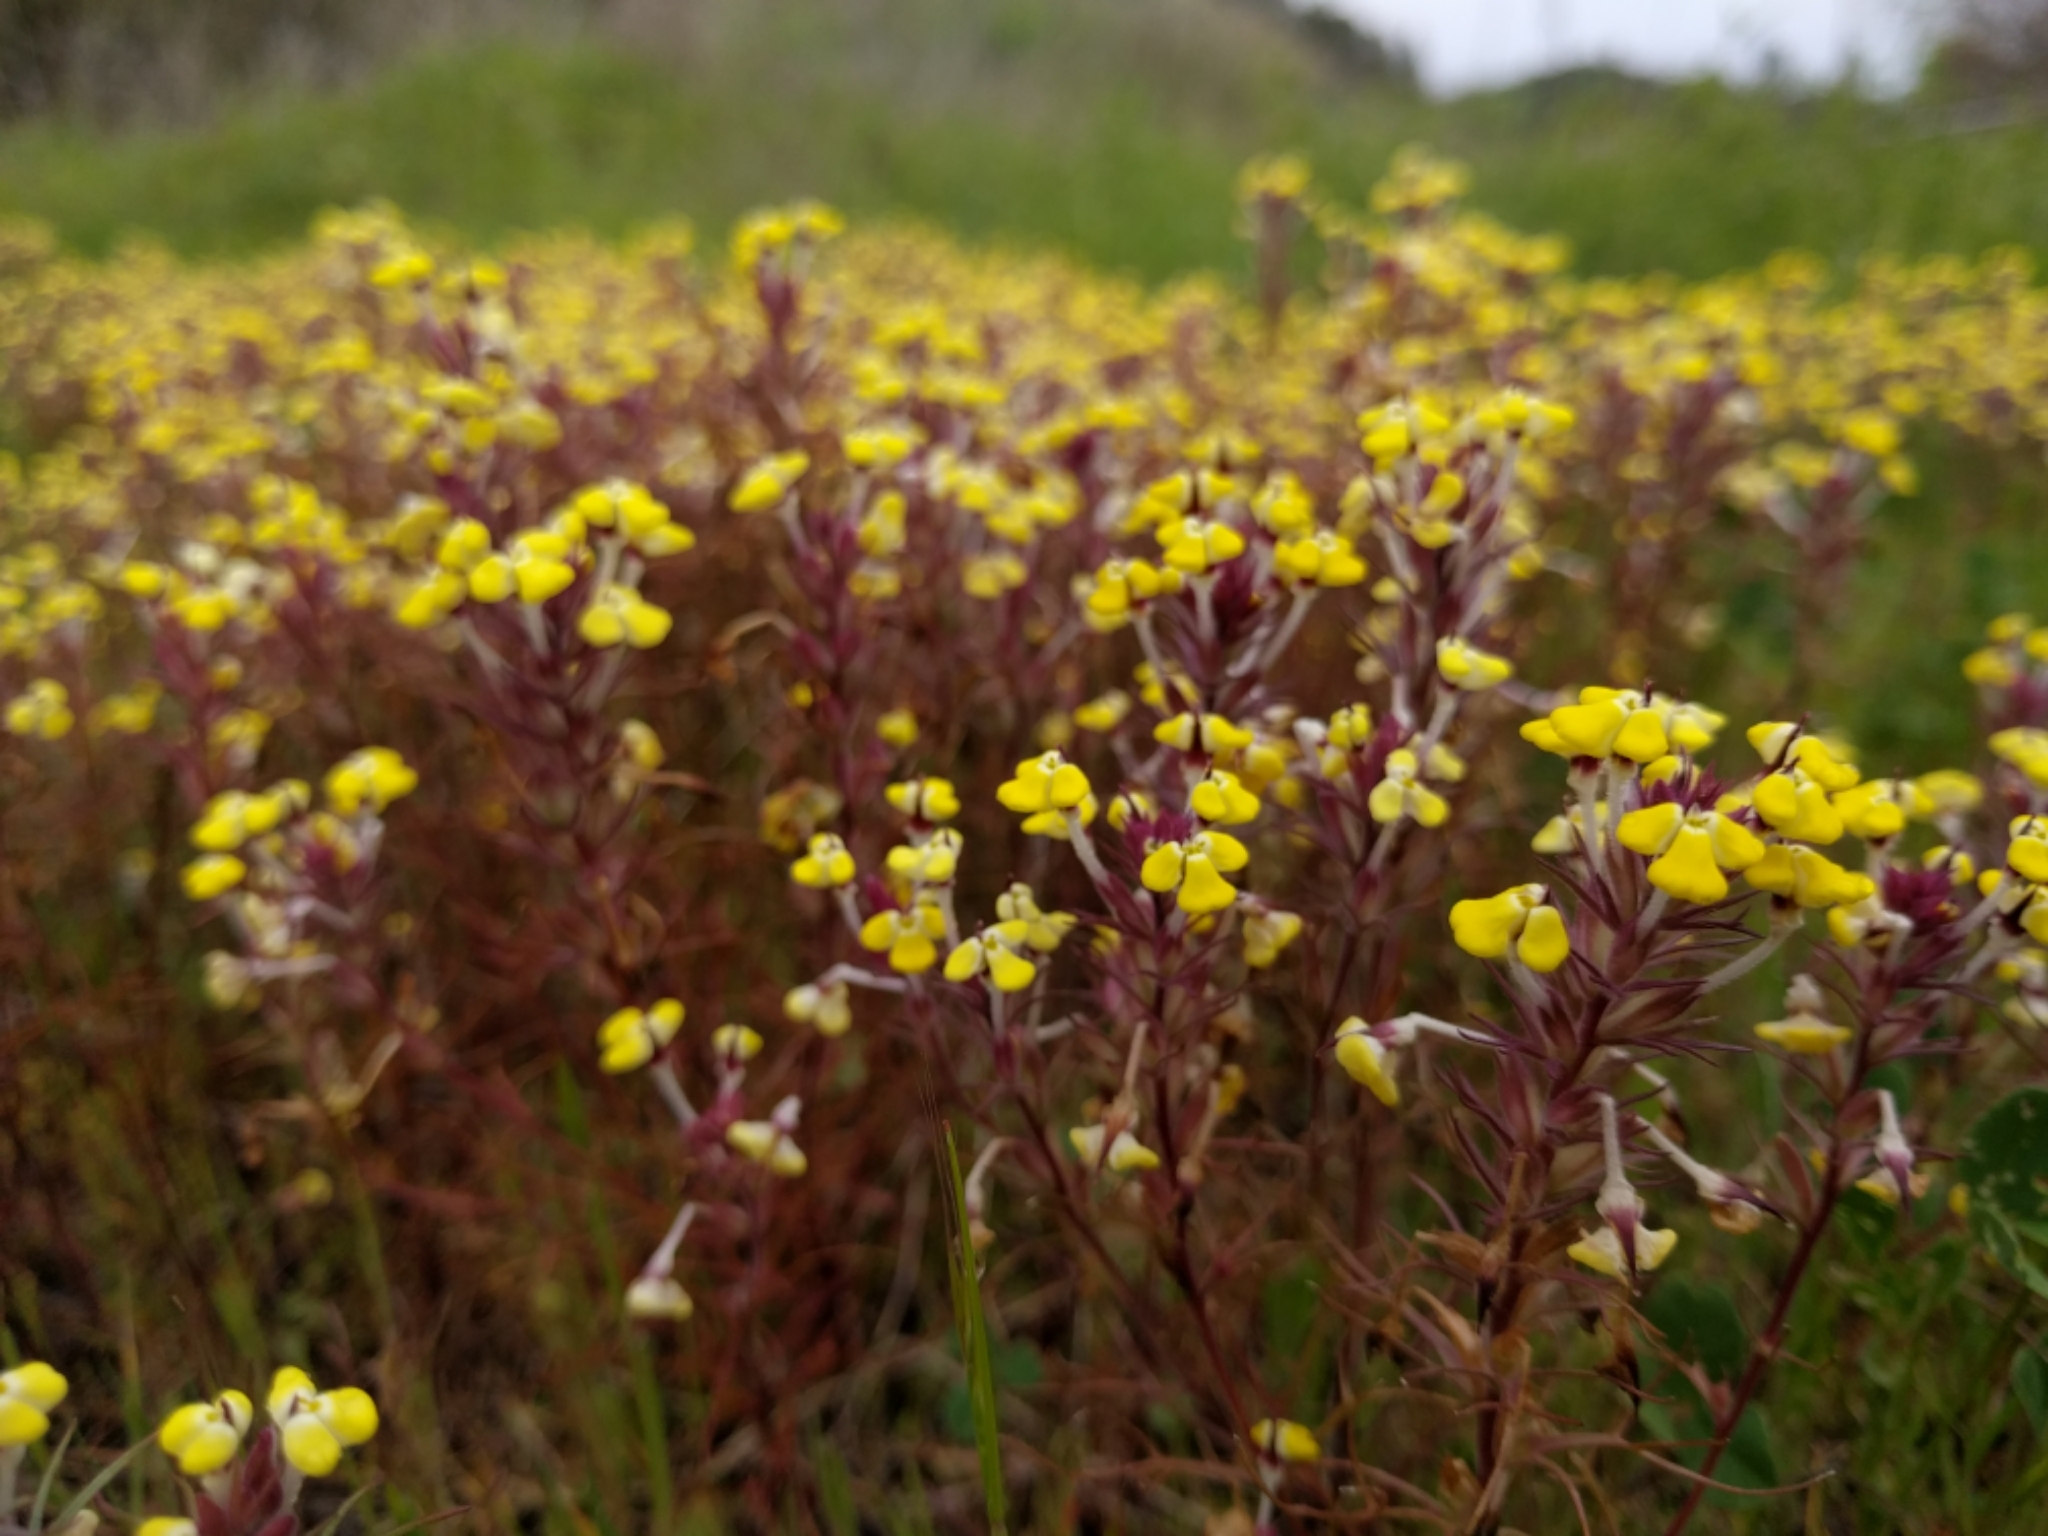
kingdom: Plantae
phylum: Tracheophyta
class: Magnoliopsida
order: Lamiales
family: Orobanchaceae
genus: Triphysaria
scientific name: Triphysaria eriantha
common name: Johnny-tuck
